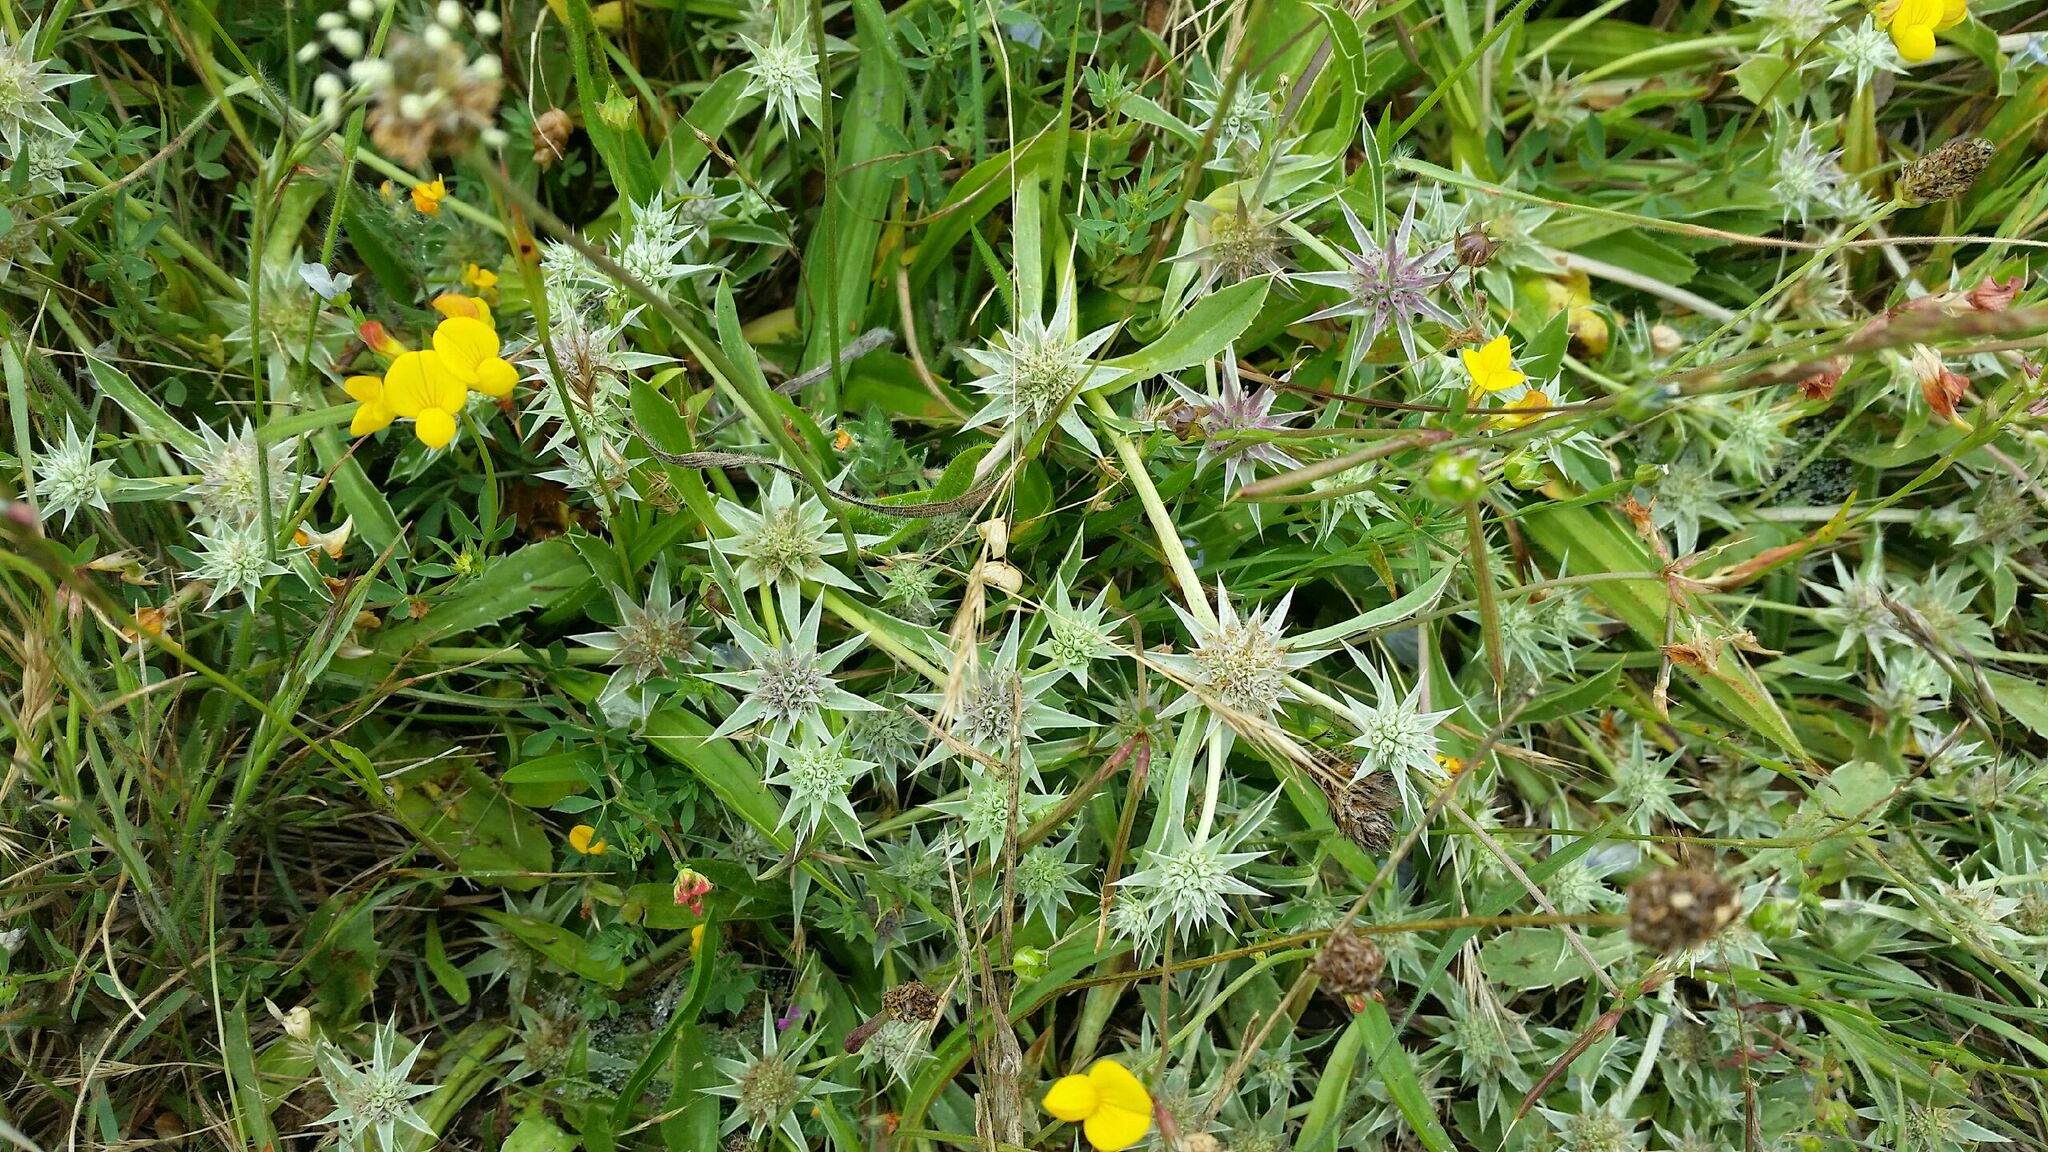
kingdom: Plantae
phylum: Tracheophyta
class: Magnoliopsida
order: Apiales
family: Apiaceae
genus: Eryngium
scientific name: Eryngium armatum
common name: Coyote thistle
